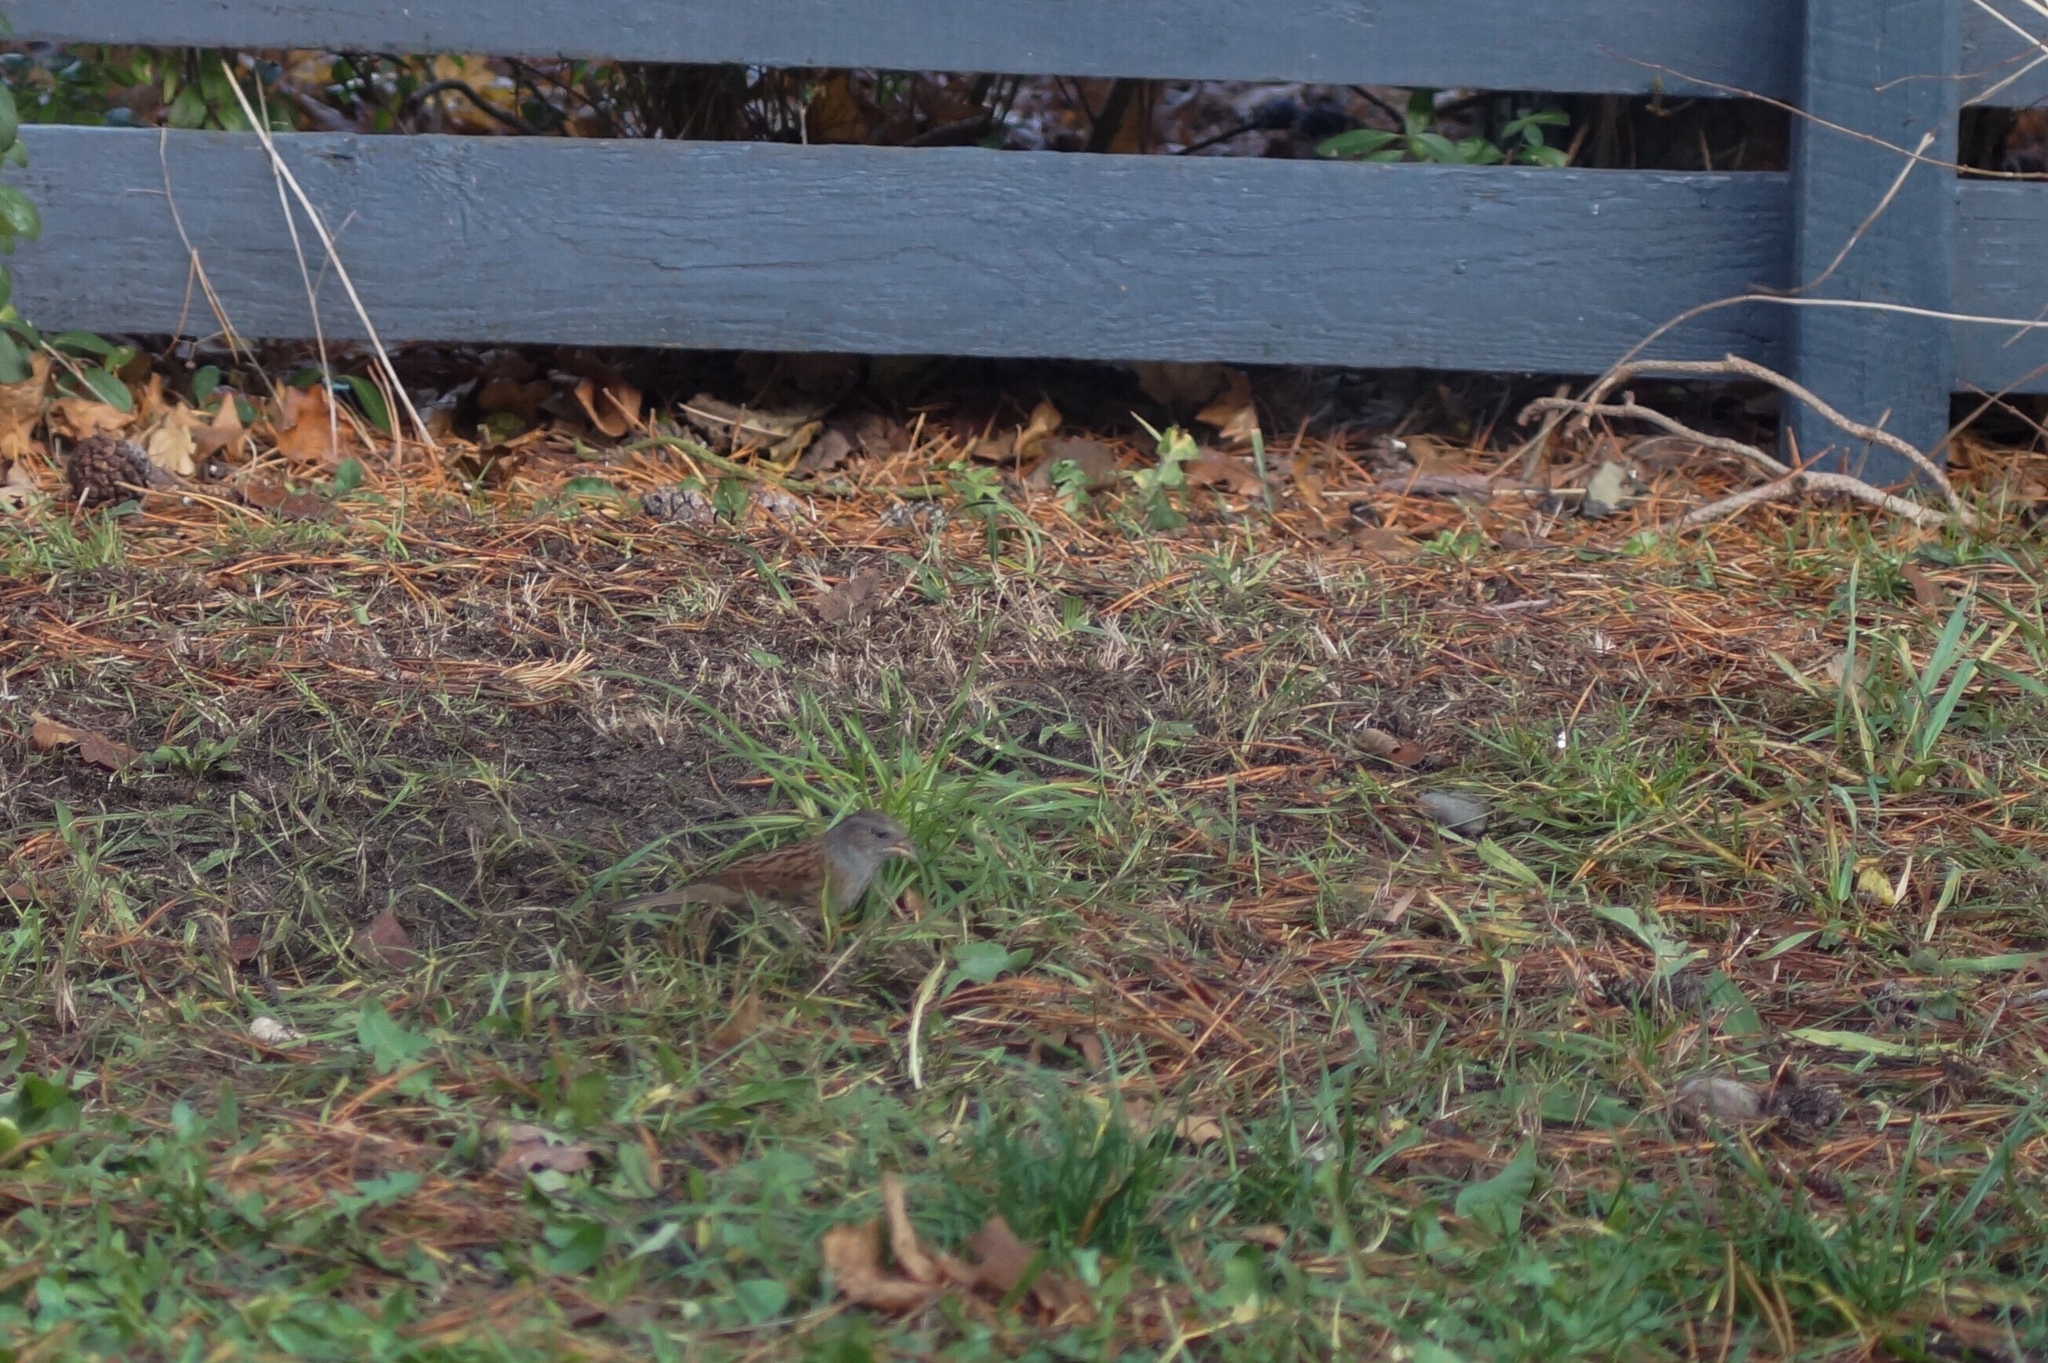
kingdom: Animalia
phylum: Chordata
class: Aves
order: Passeriformes
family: Prunellidae
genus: Prunella
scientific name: Prunella modularis
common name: Dunnock
